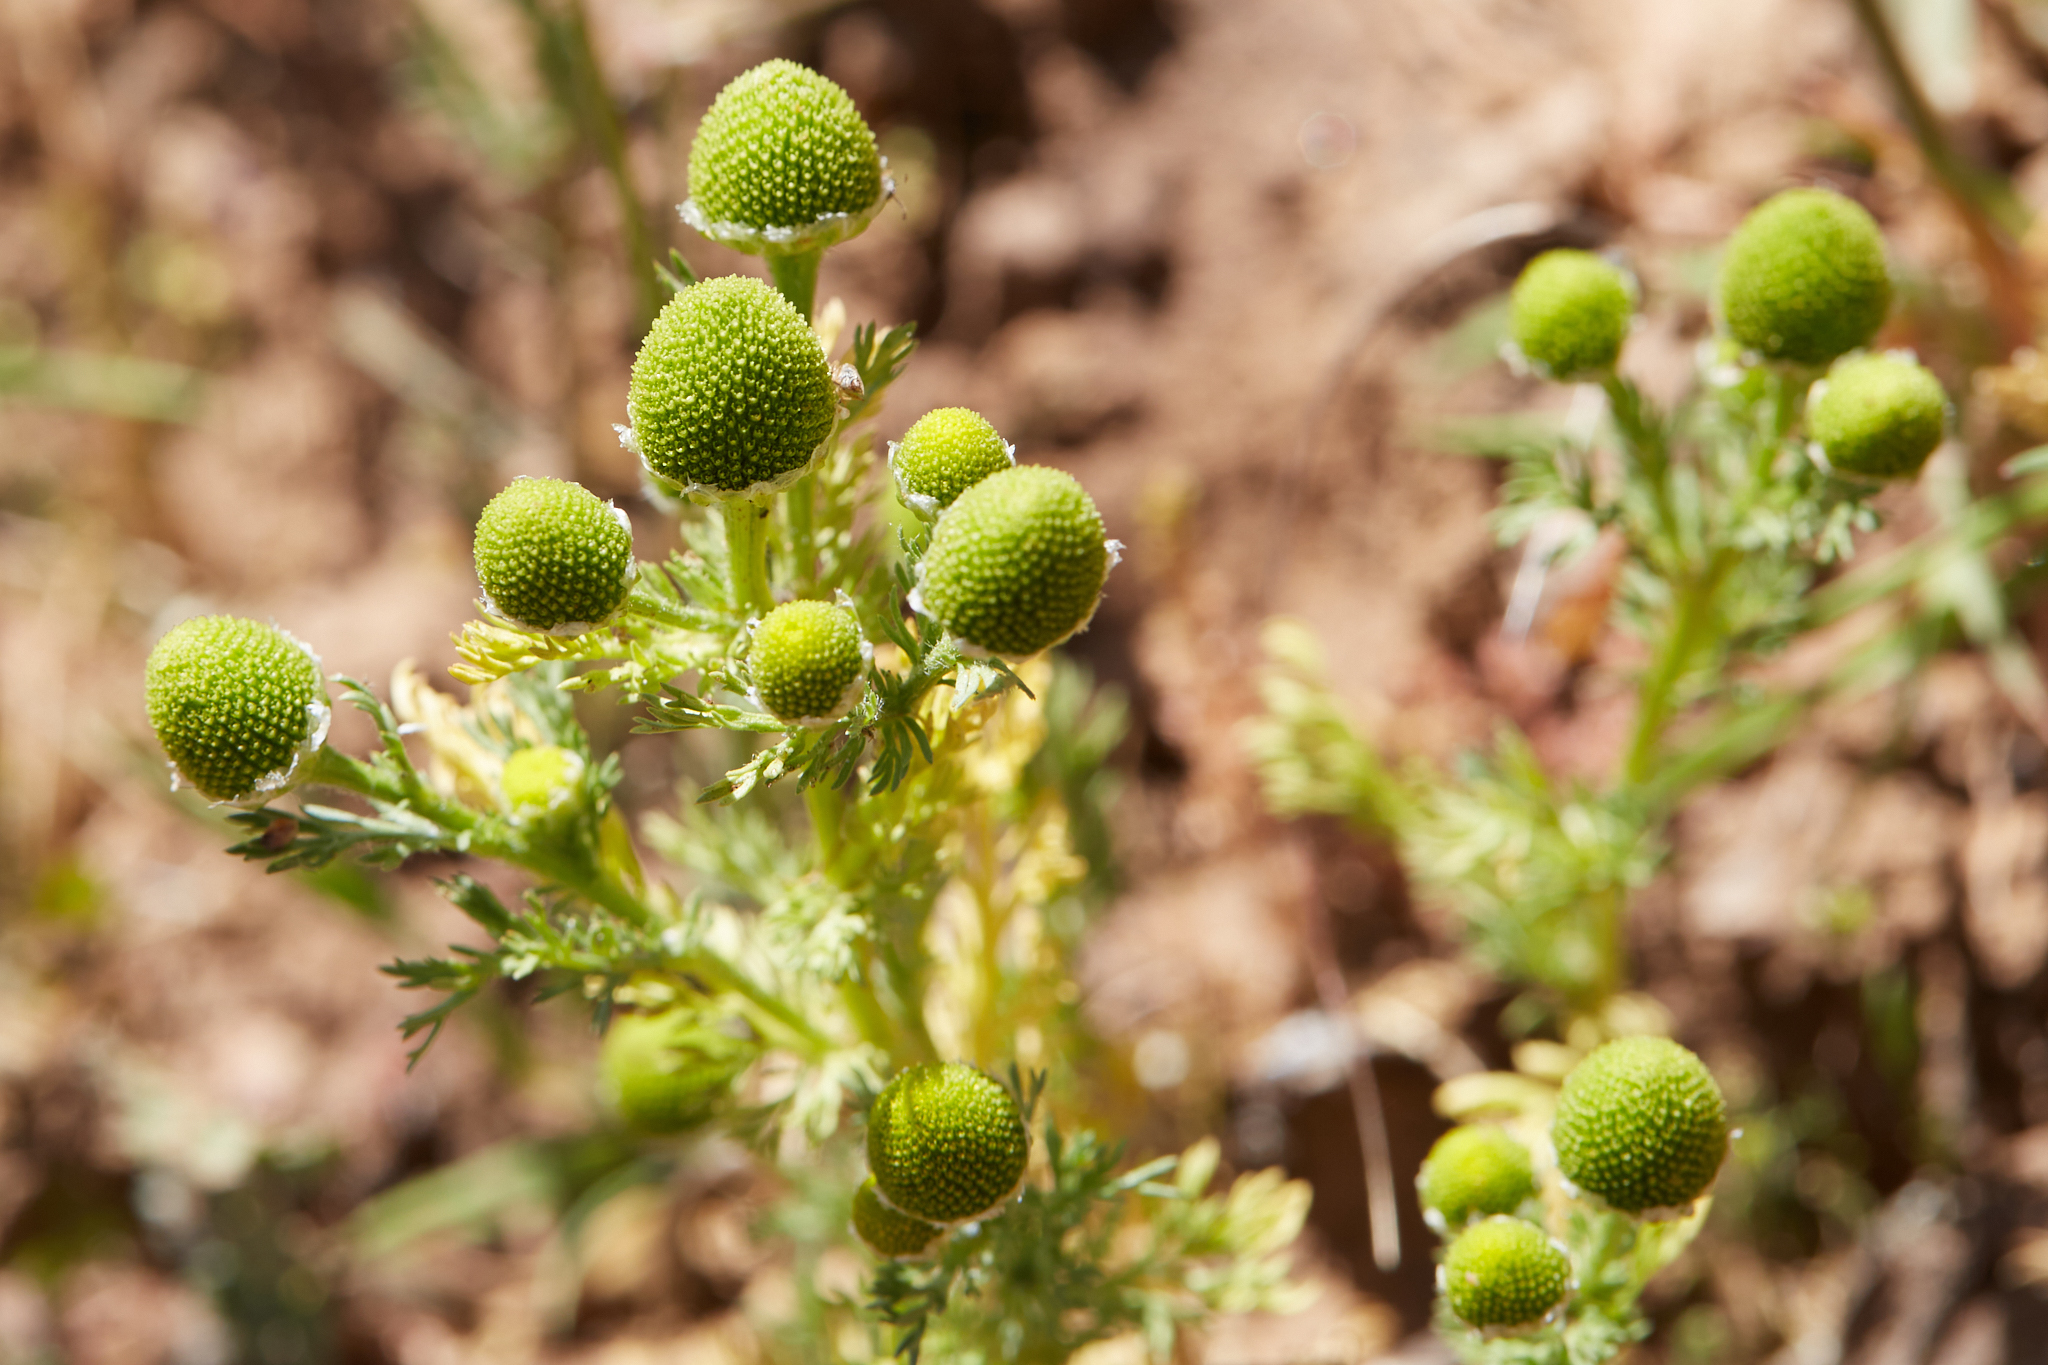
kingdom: Plantae
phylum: Tracheophyta
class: Magnoliopsida
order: Asterales
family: Asteraceae
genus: Matricaria
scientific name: Matricaria discoidea
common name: Disc mayweed
